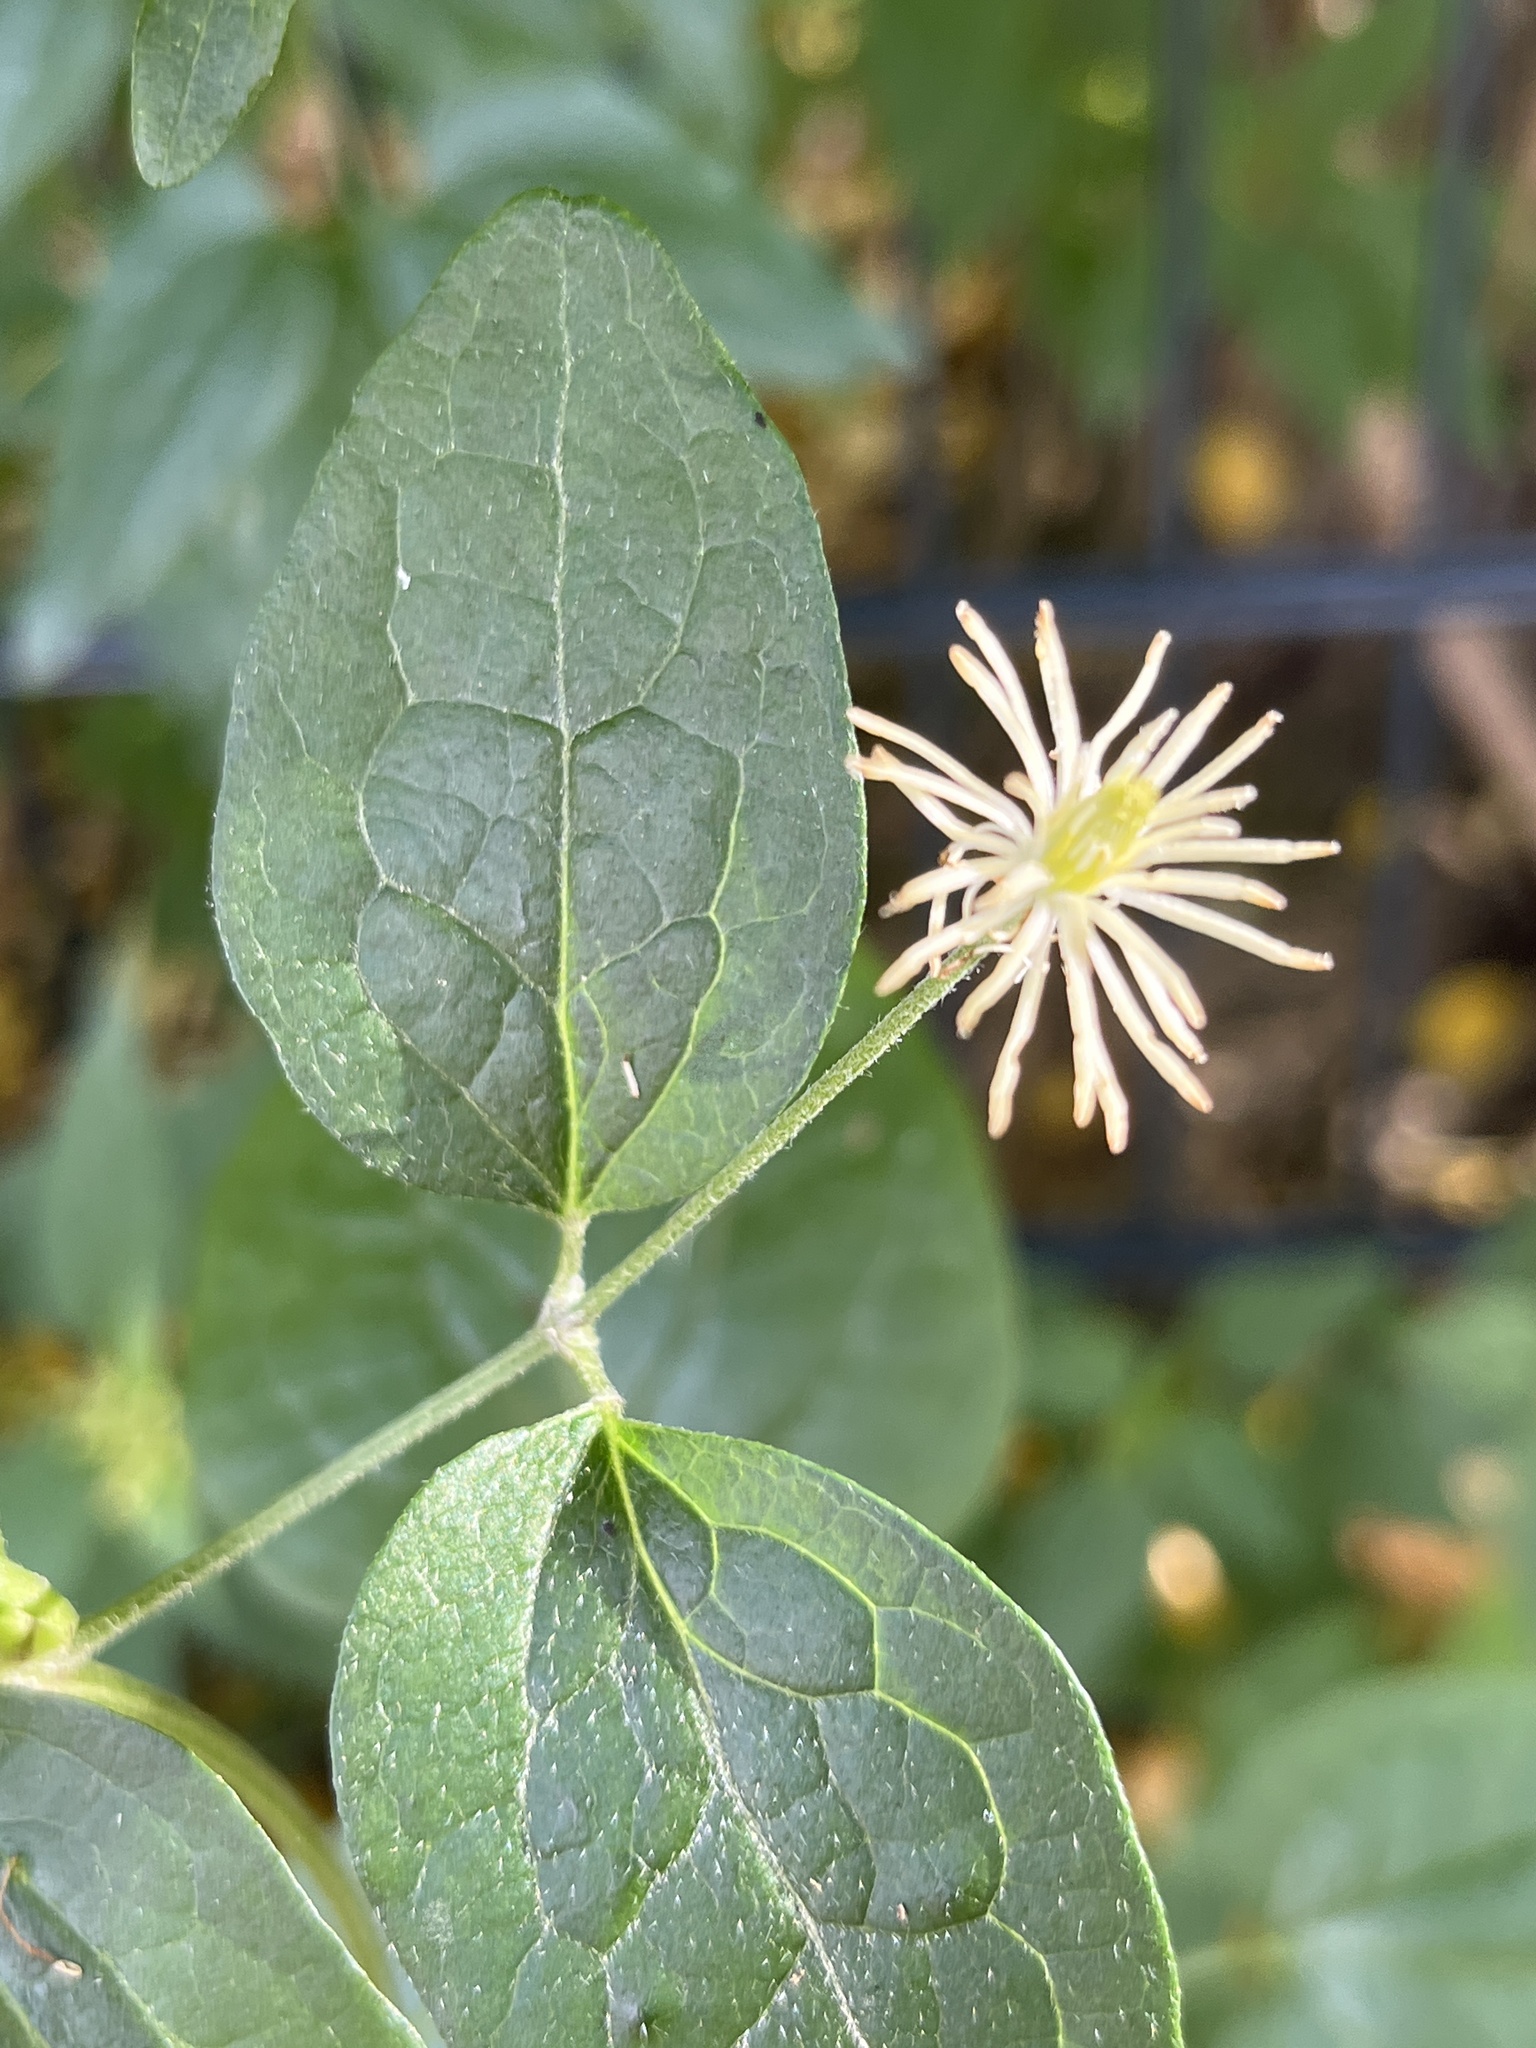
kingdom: Plantae
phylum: Tracheophyta
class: Magnoliopsida
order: Ranunculales
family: Ranunculaceae
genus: Clematis
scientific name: Clematis vitalba
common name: Evergreen clematis
